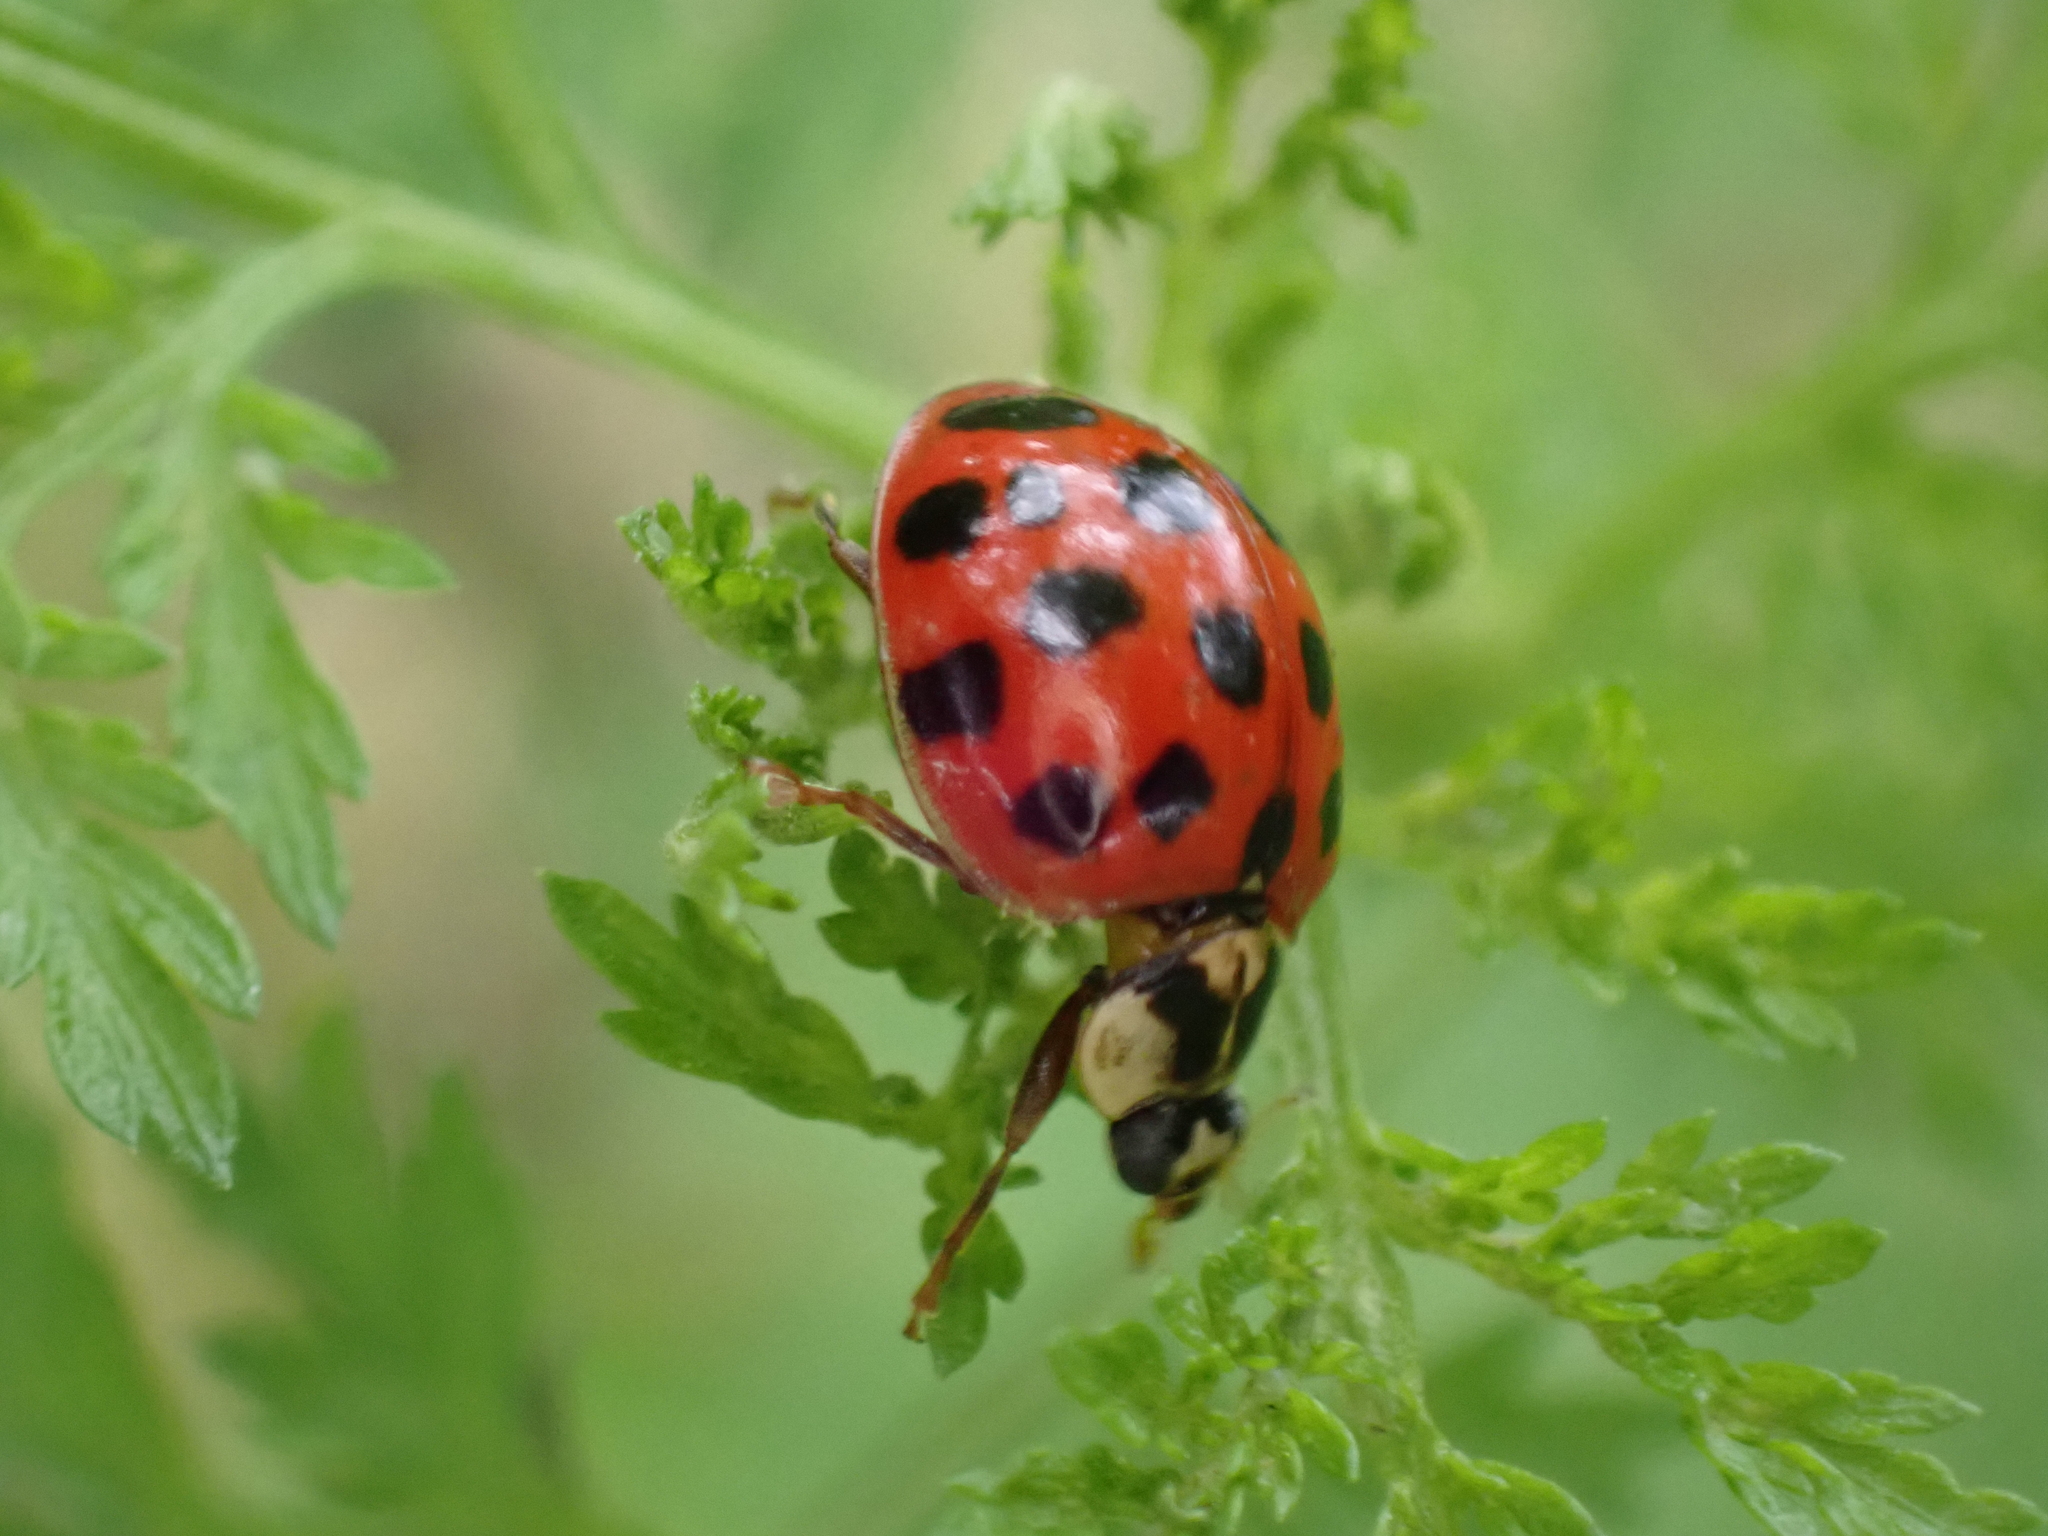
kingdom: Animalia
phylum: Arthropoda
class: Insecta
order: Coleoptera
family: Coccinellidae
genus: Harmonia
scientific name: Harmonia axyridis
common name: Harlequin ladybird
